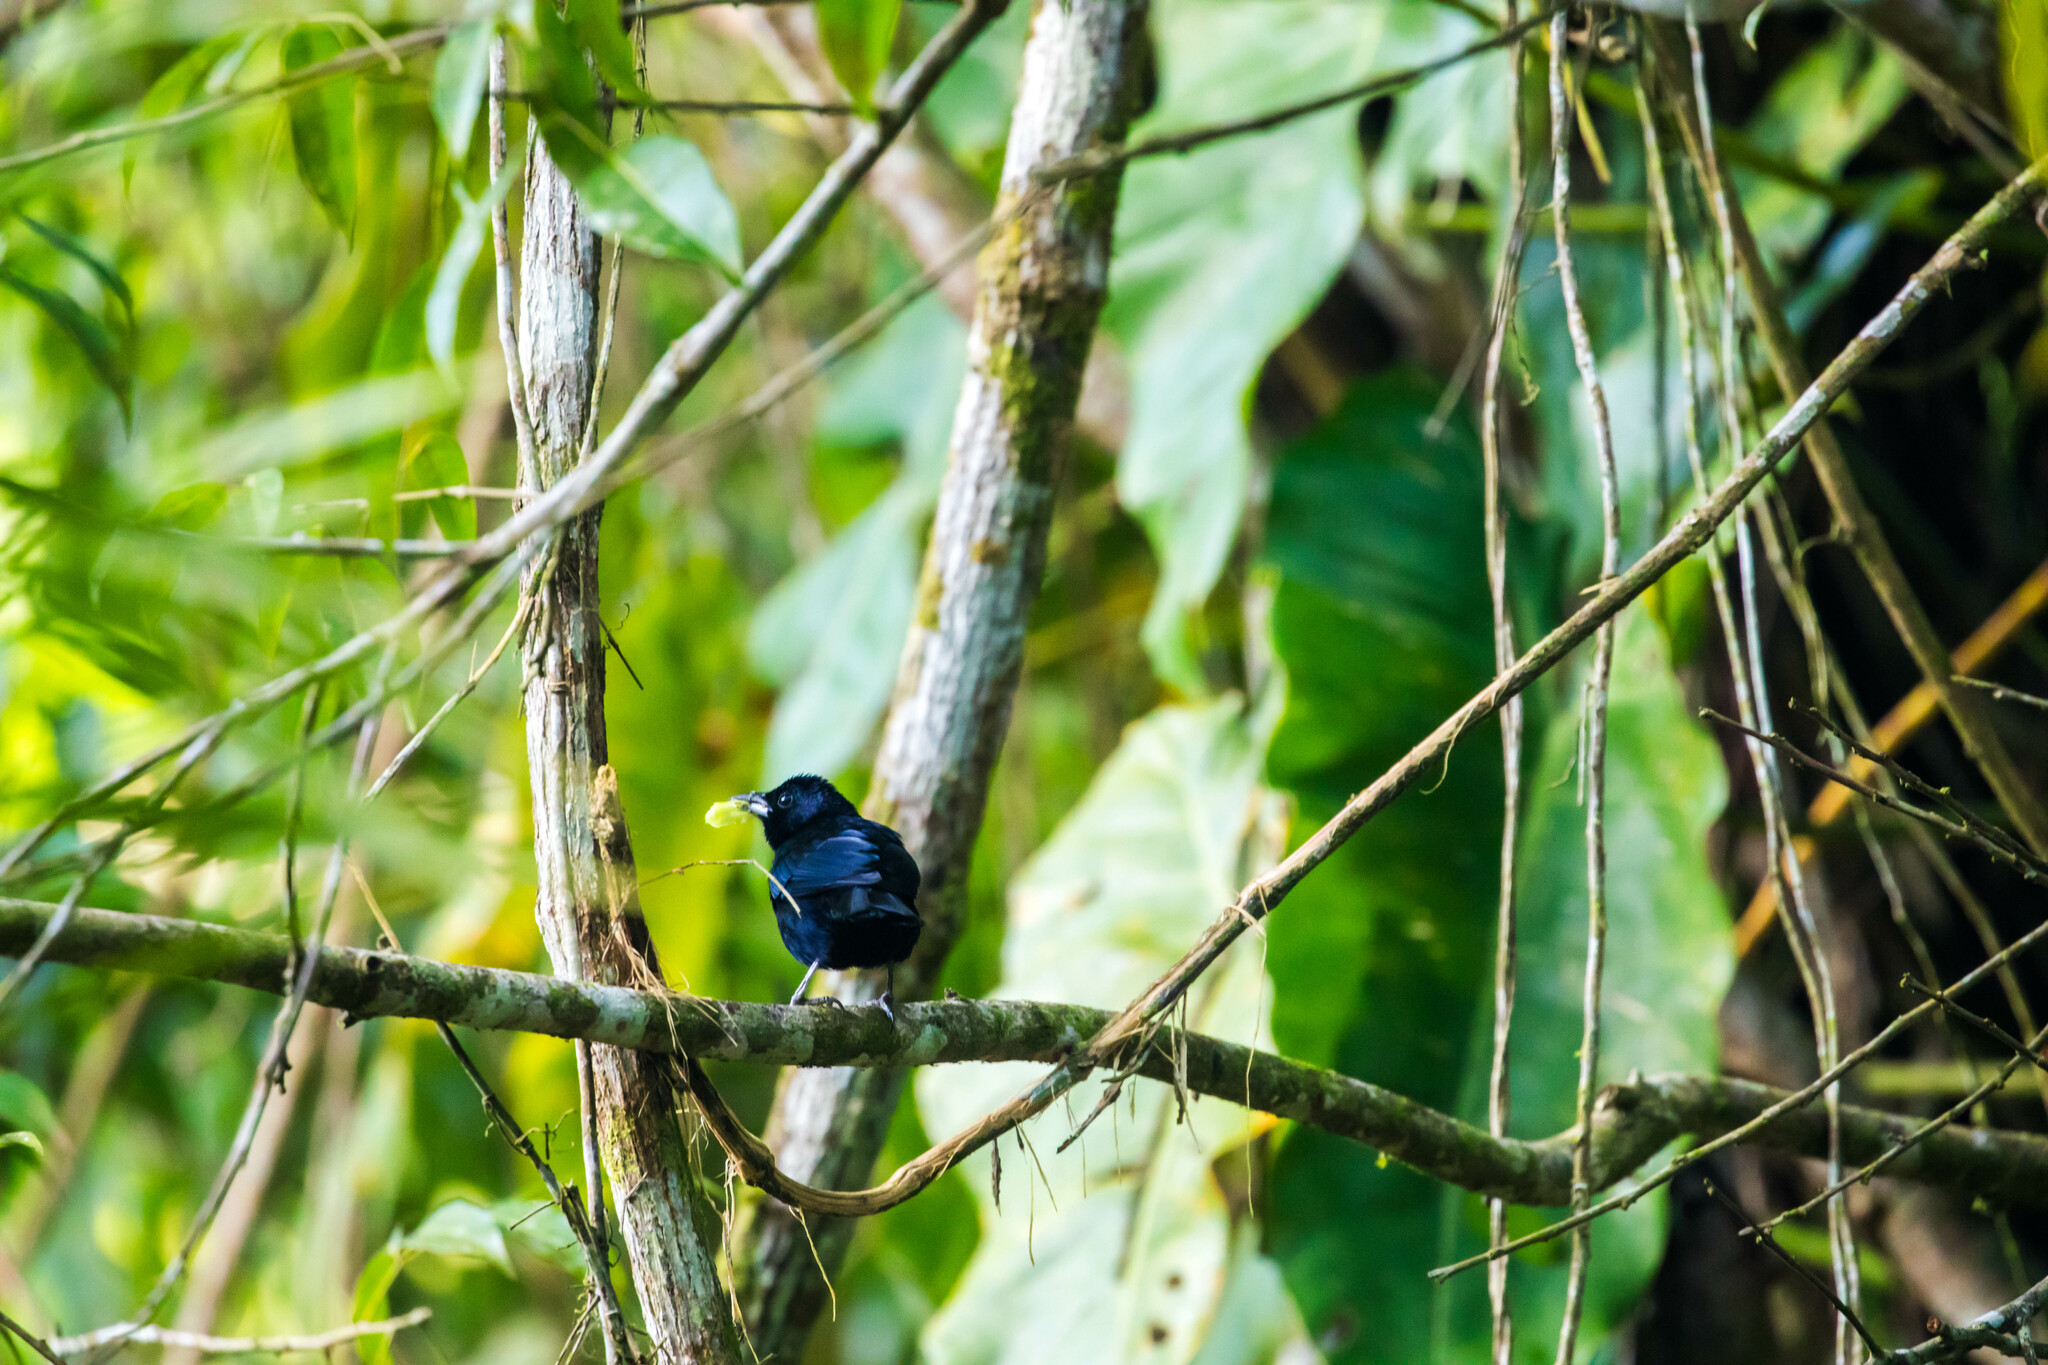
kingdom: Animalia
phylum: Chordata
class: Aves
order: Passeriformes
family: Thraupidae
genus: Tachyphonus
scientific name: Tachyphonus rufus
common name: White-lined tanager
